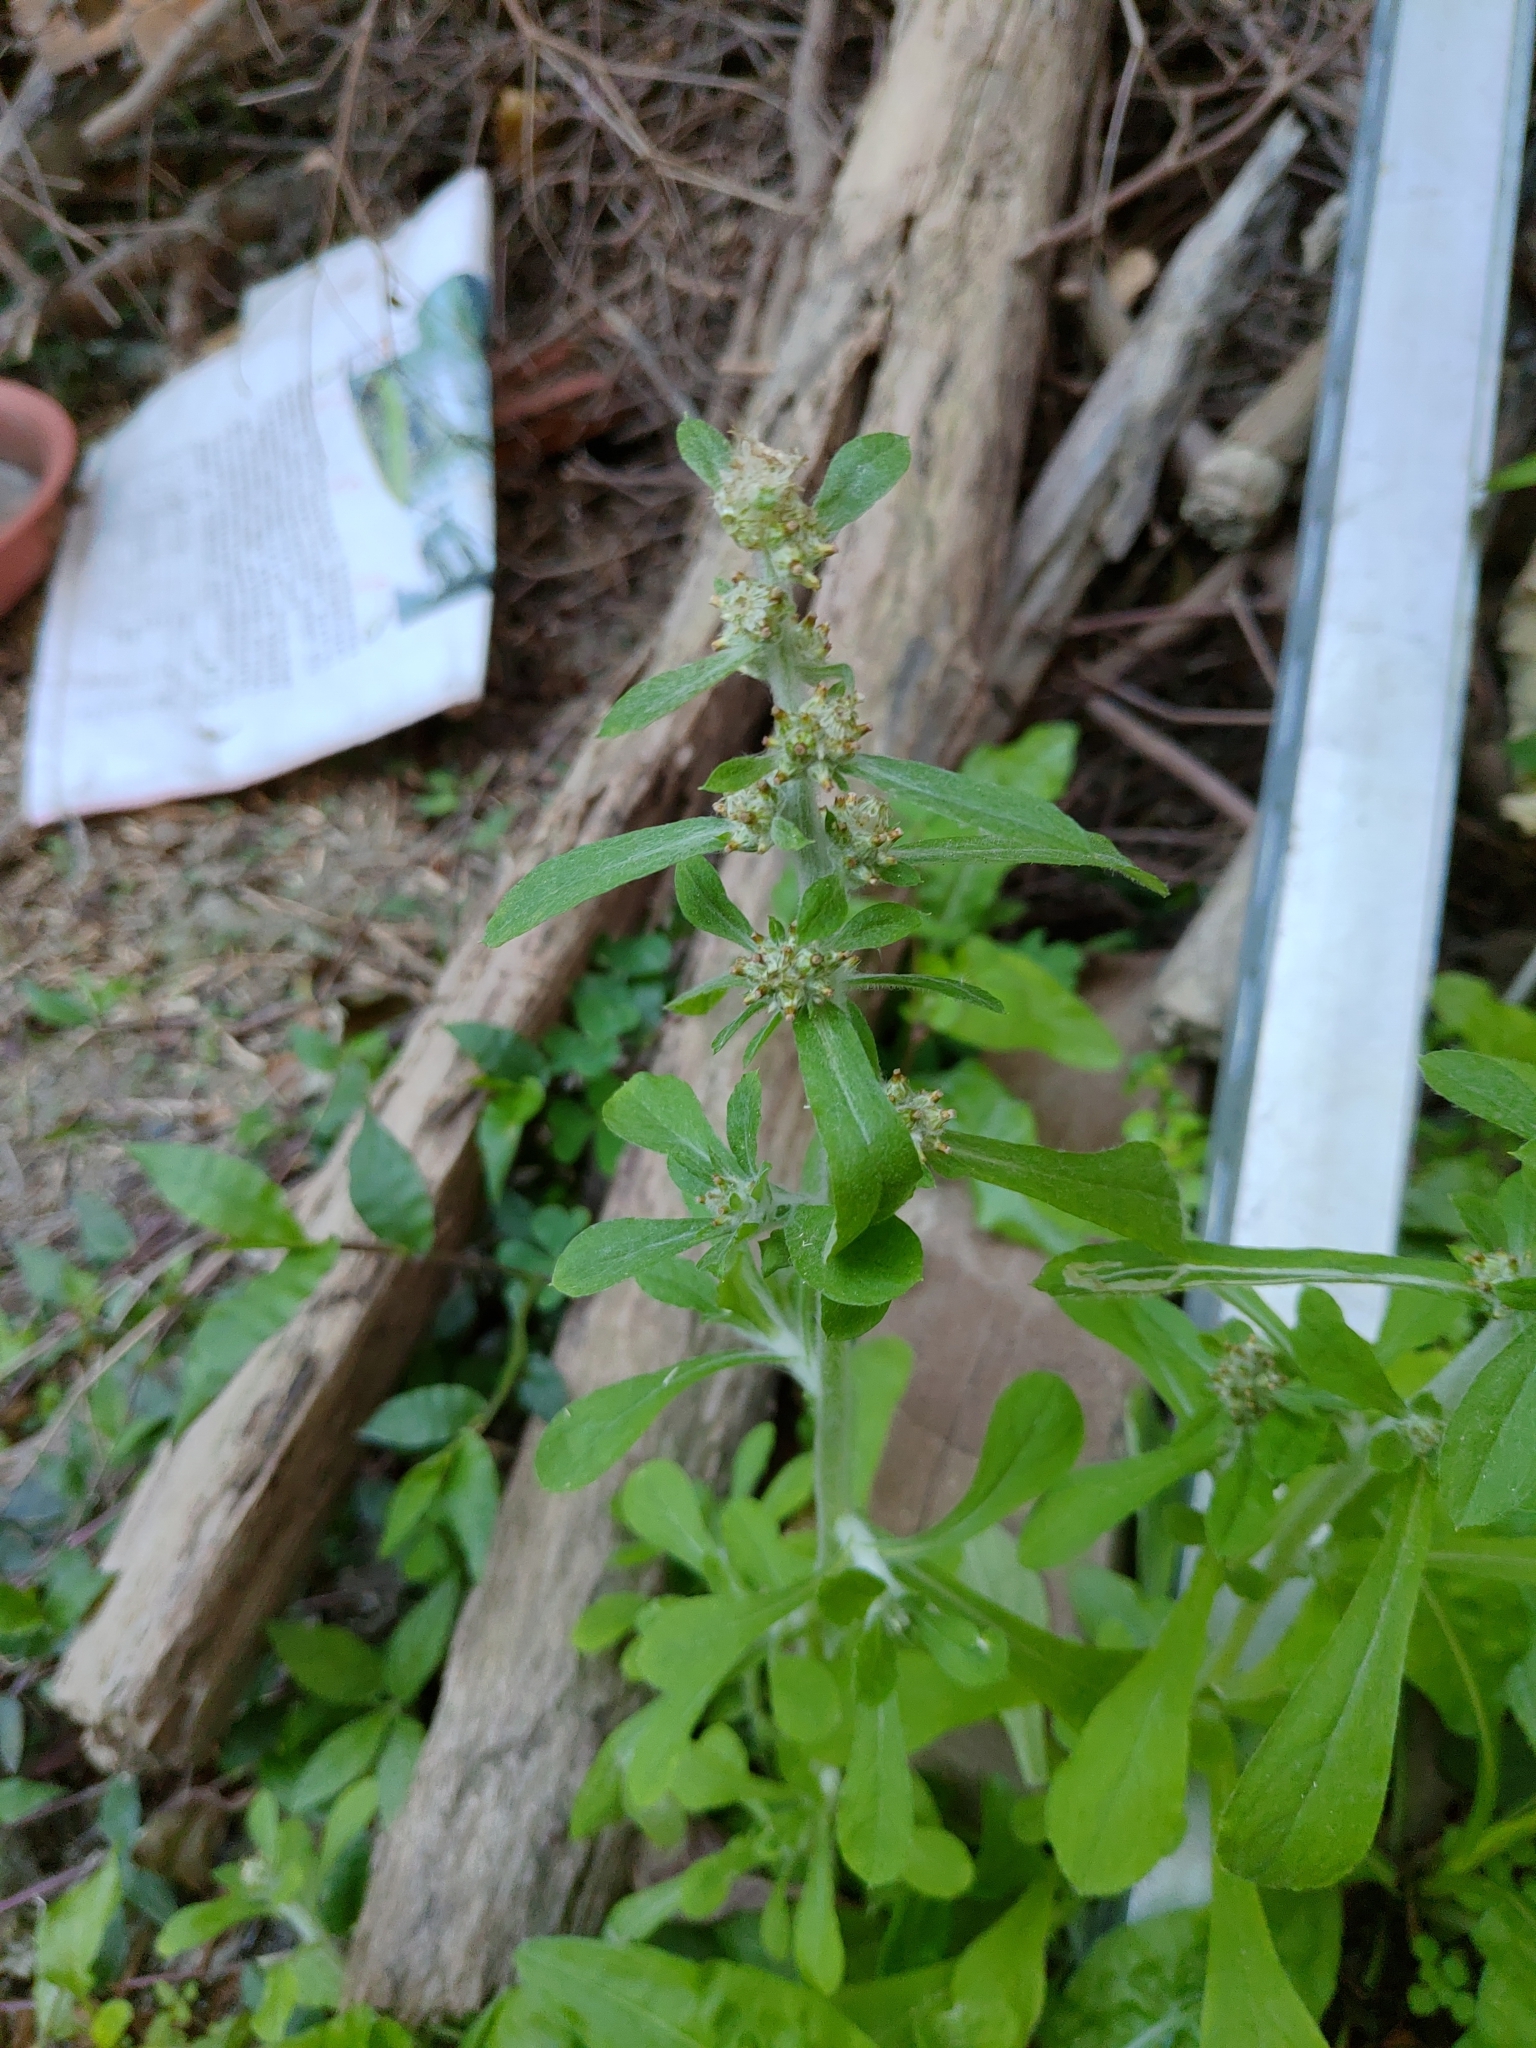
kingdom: Plantae
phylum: Tracheophyta
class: Magnoliopsida
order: Asterales
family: Asteraceae
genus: Gamochaeta
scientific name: Gamochaeta purpurea
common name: Purple cudweed
